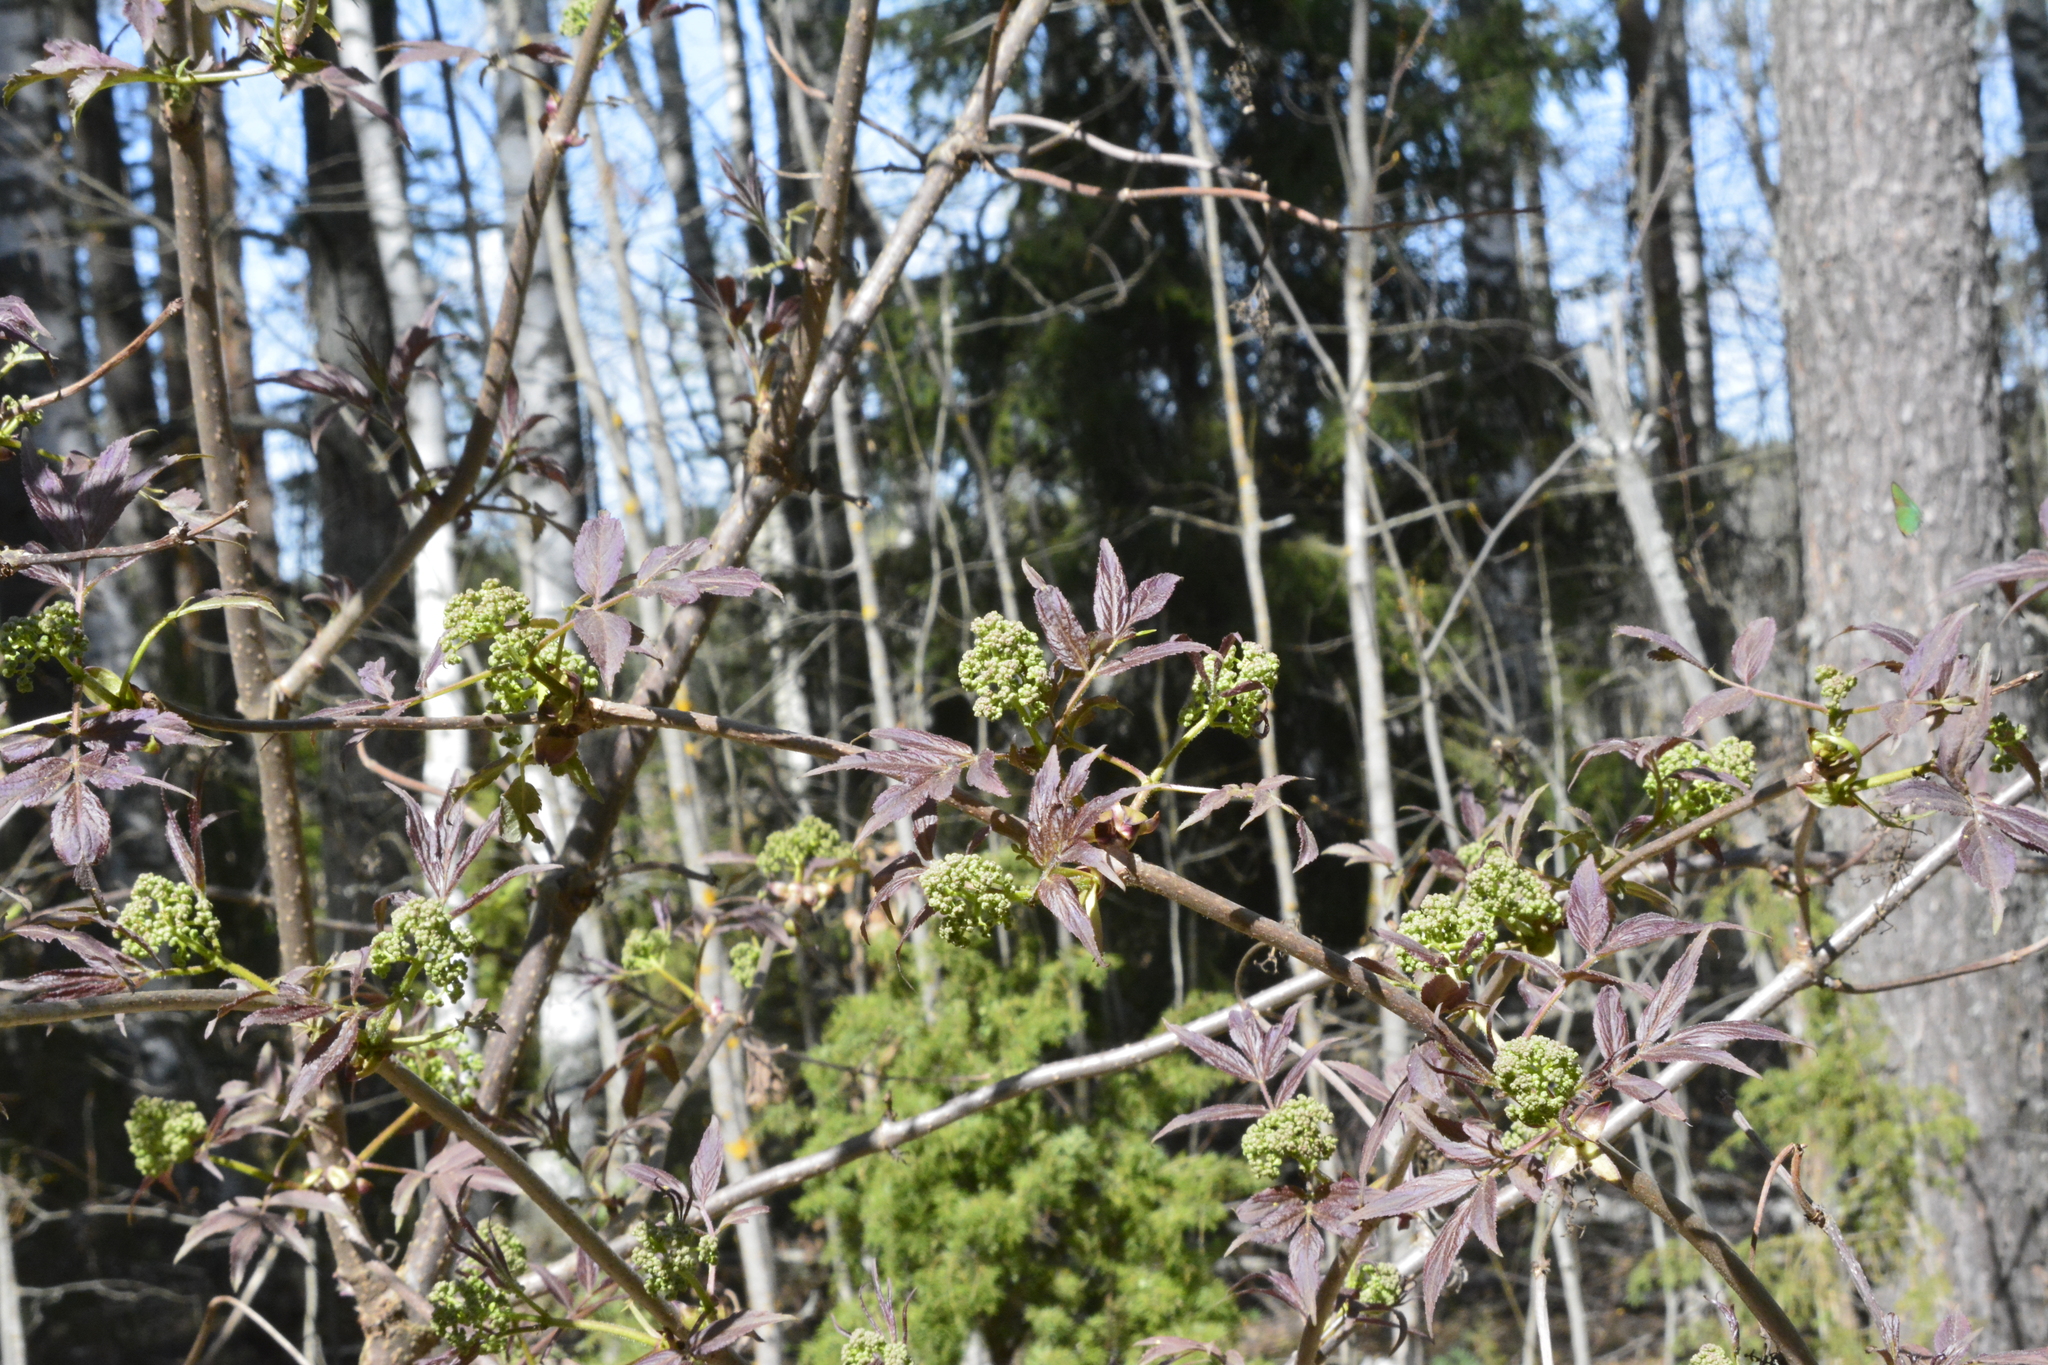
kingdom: Plantae
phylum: Tracheophyta
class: Magnoliopsida
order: Dipsacales
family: Viburnaceae
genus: Sambucus
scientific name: Sambucus racemosa
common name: Red-berried elder
